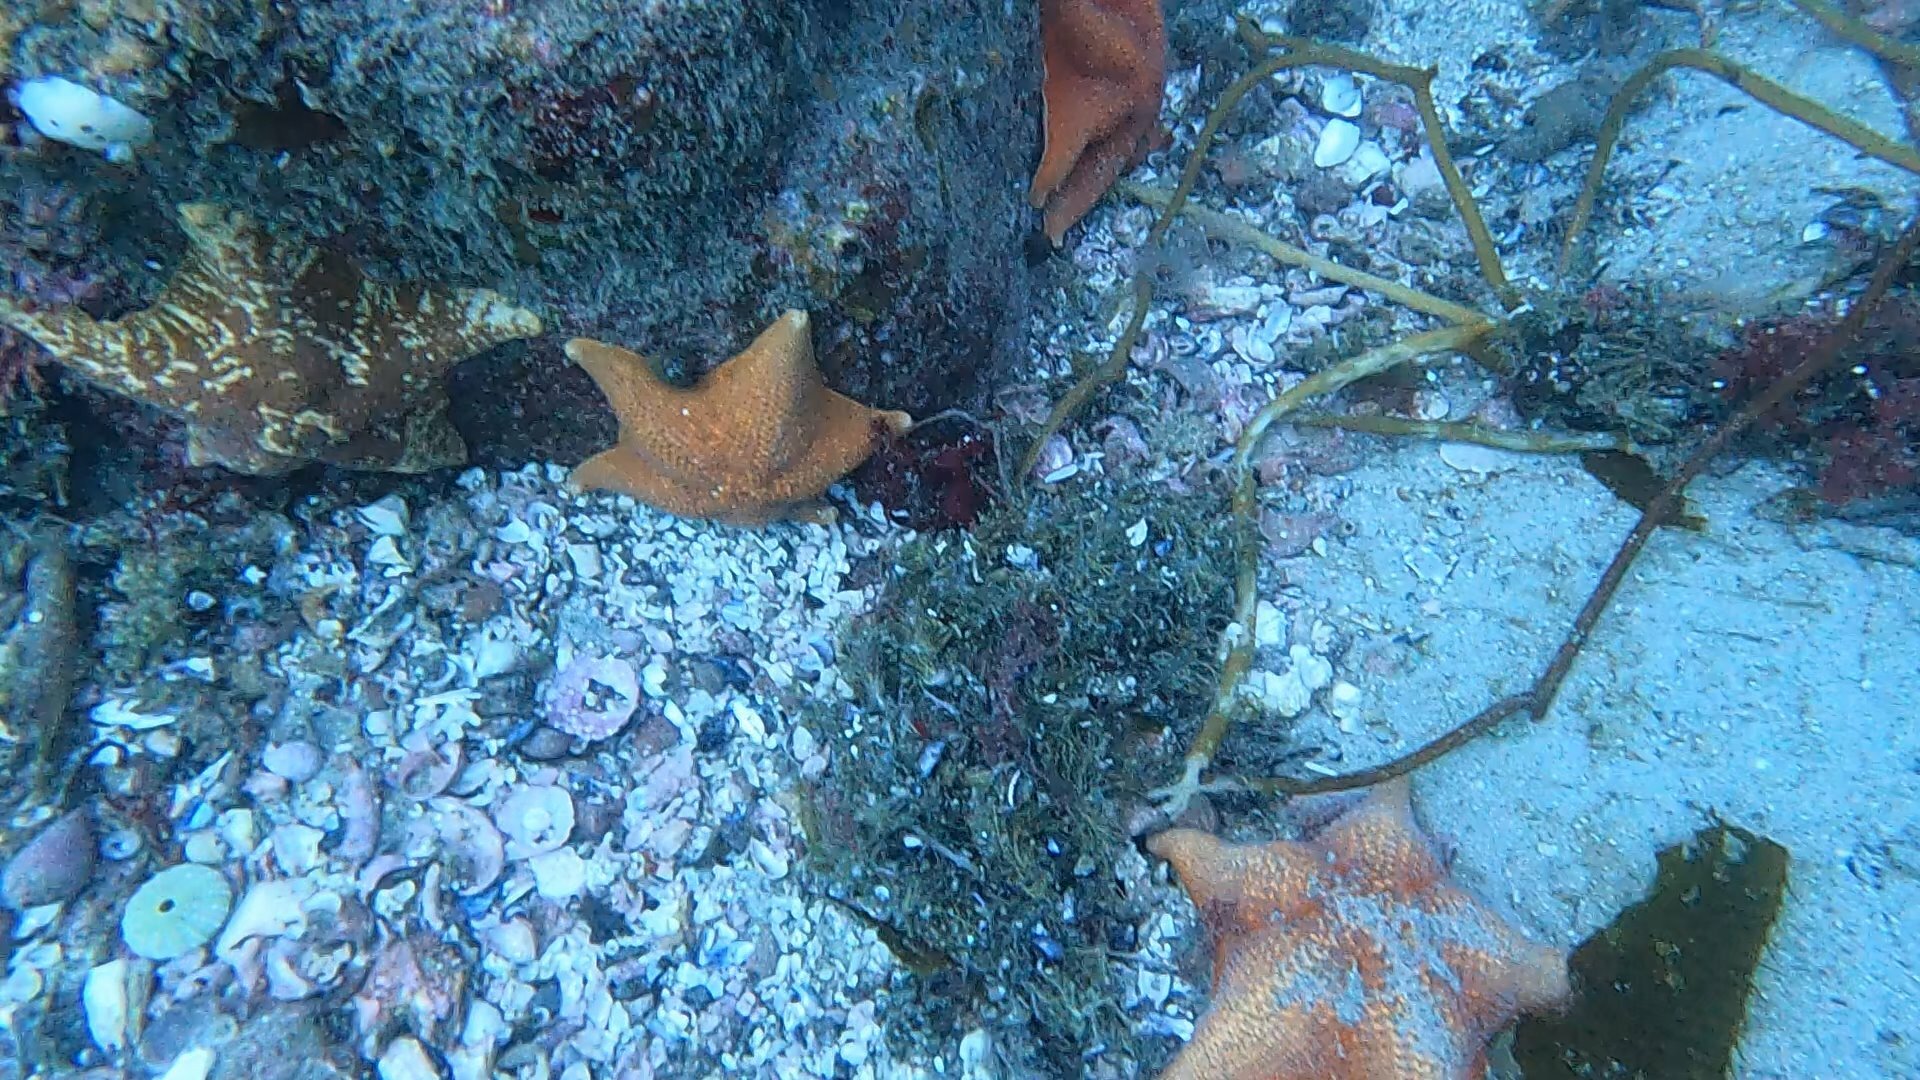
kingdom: Animalia
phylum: Echinodermata
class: Asteroidea
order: Valvatida
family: Asterinidae
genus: Patiria
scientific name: Patiria miniata
